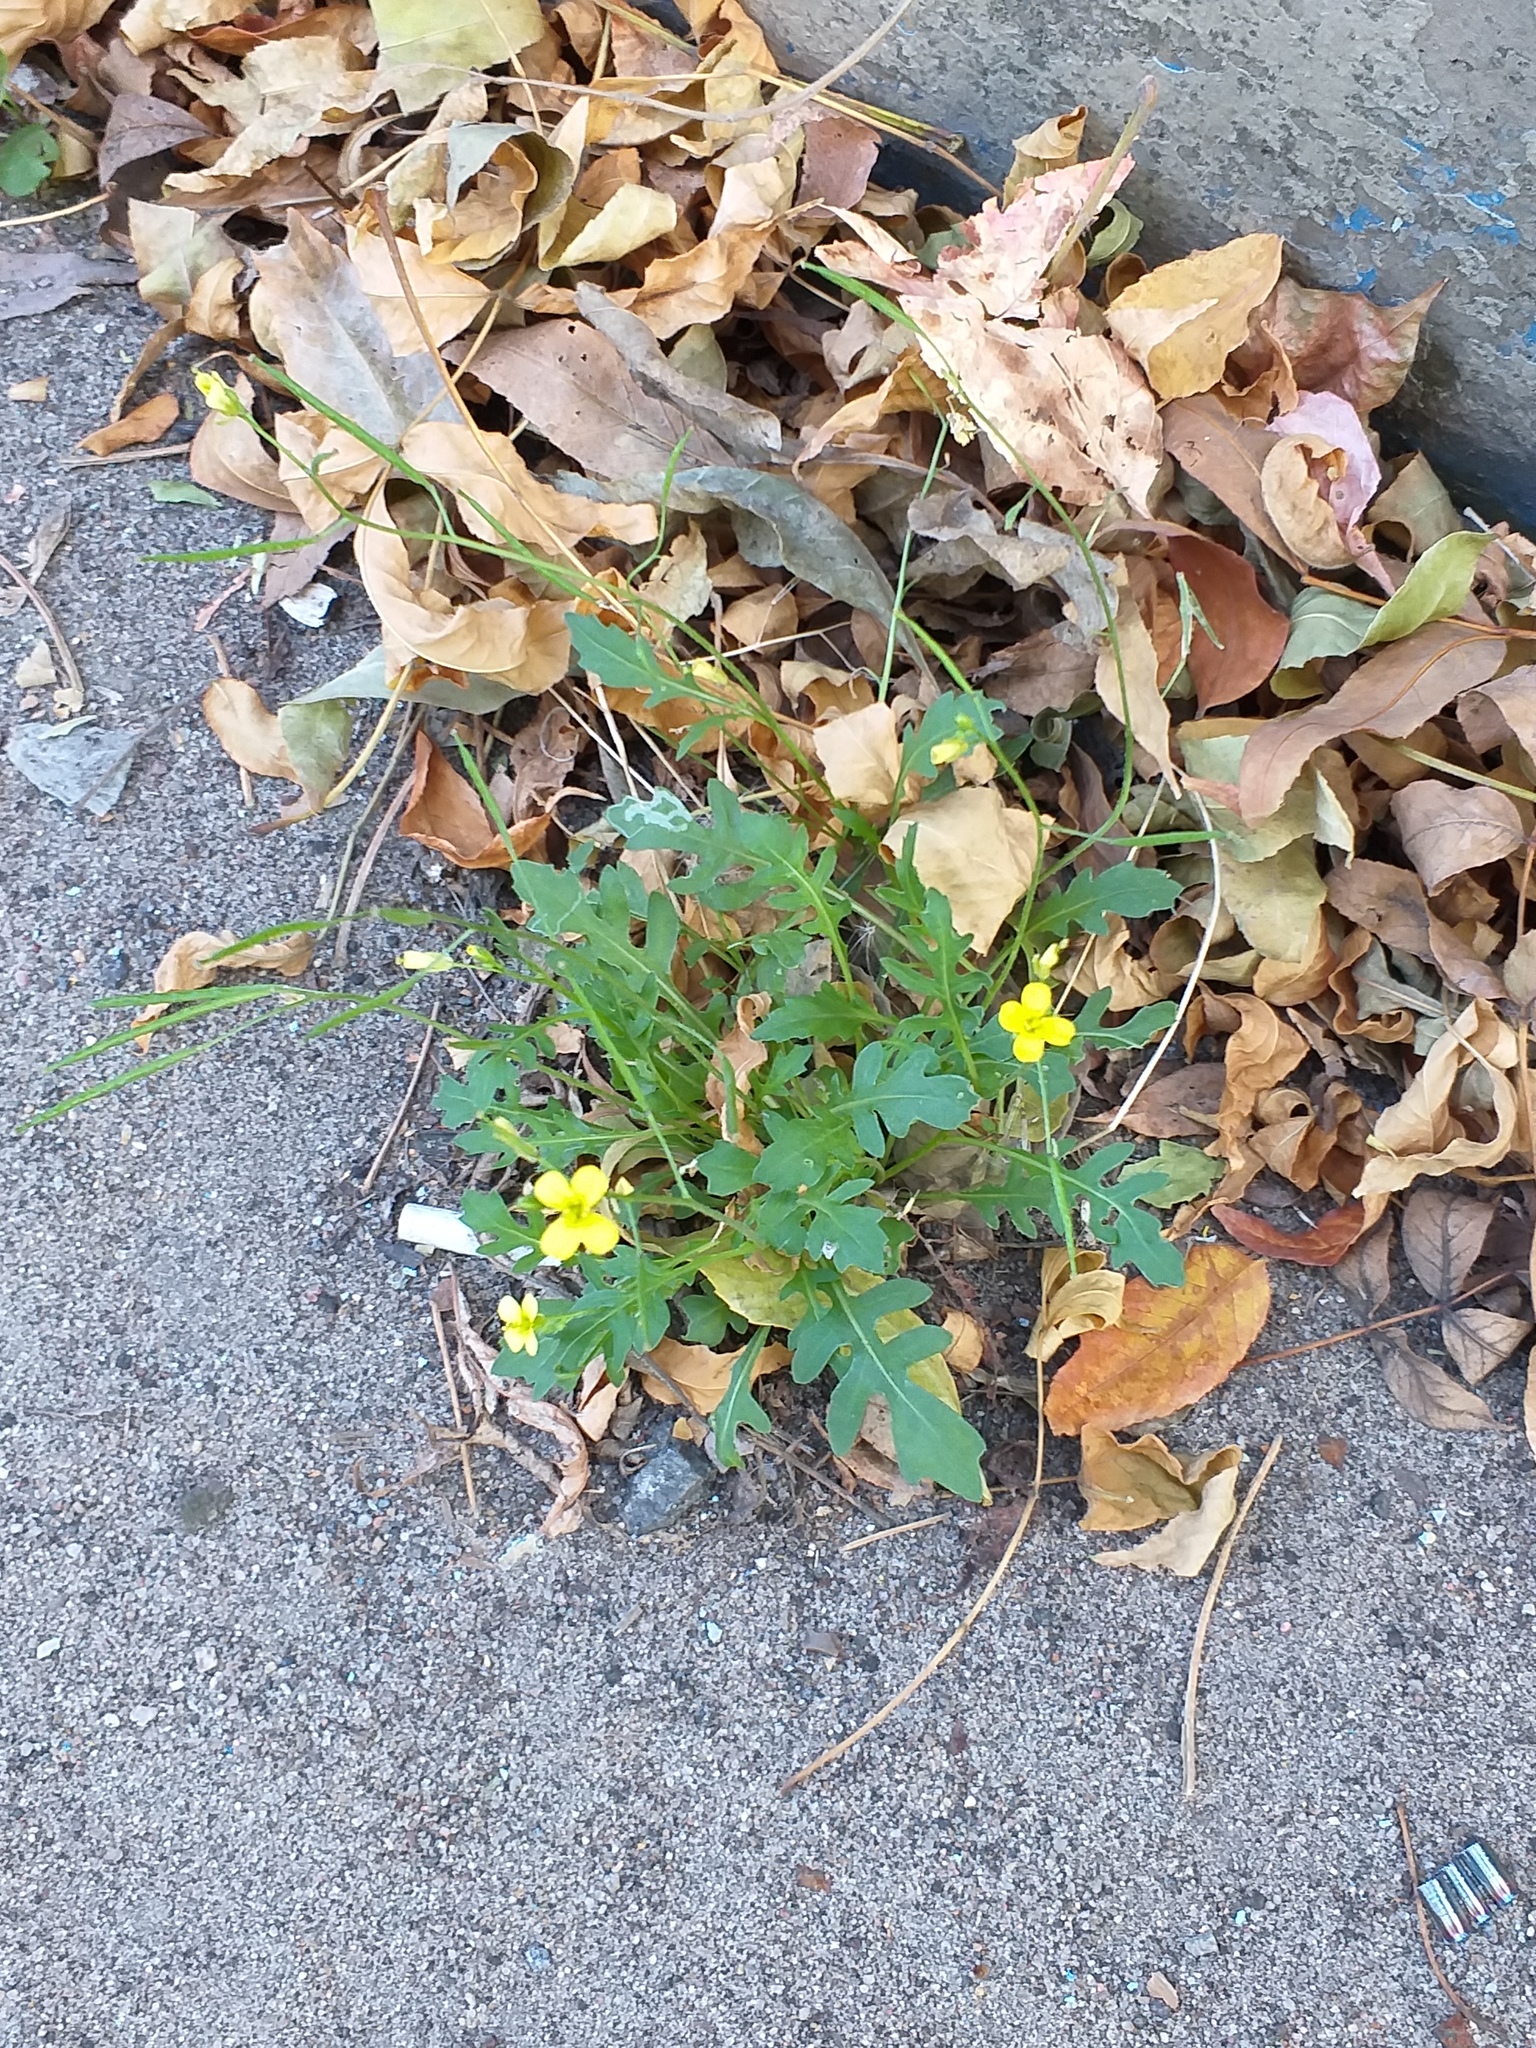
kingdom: Plantae
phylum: Tracheophyta
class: Magnoliopsida
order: Brassicales
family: Brassicaceae
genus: Diplotaxis
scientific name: Diplotaxis muralis
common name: Annual wall-rocket
